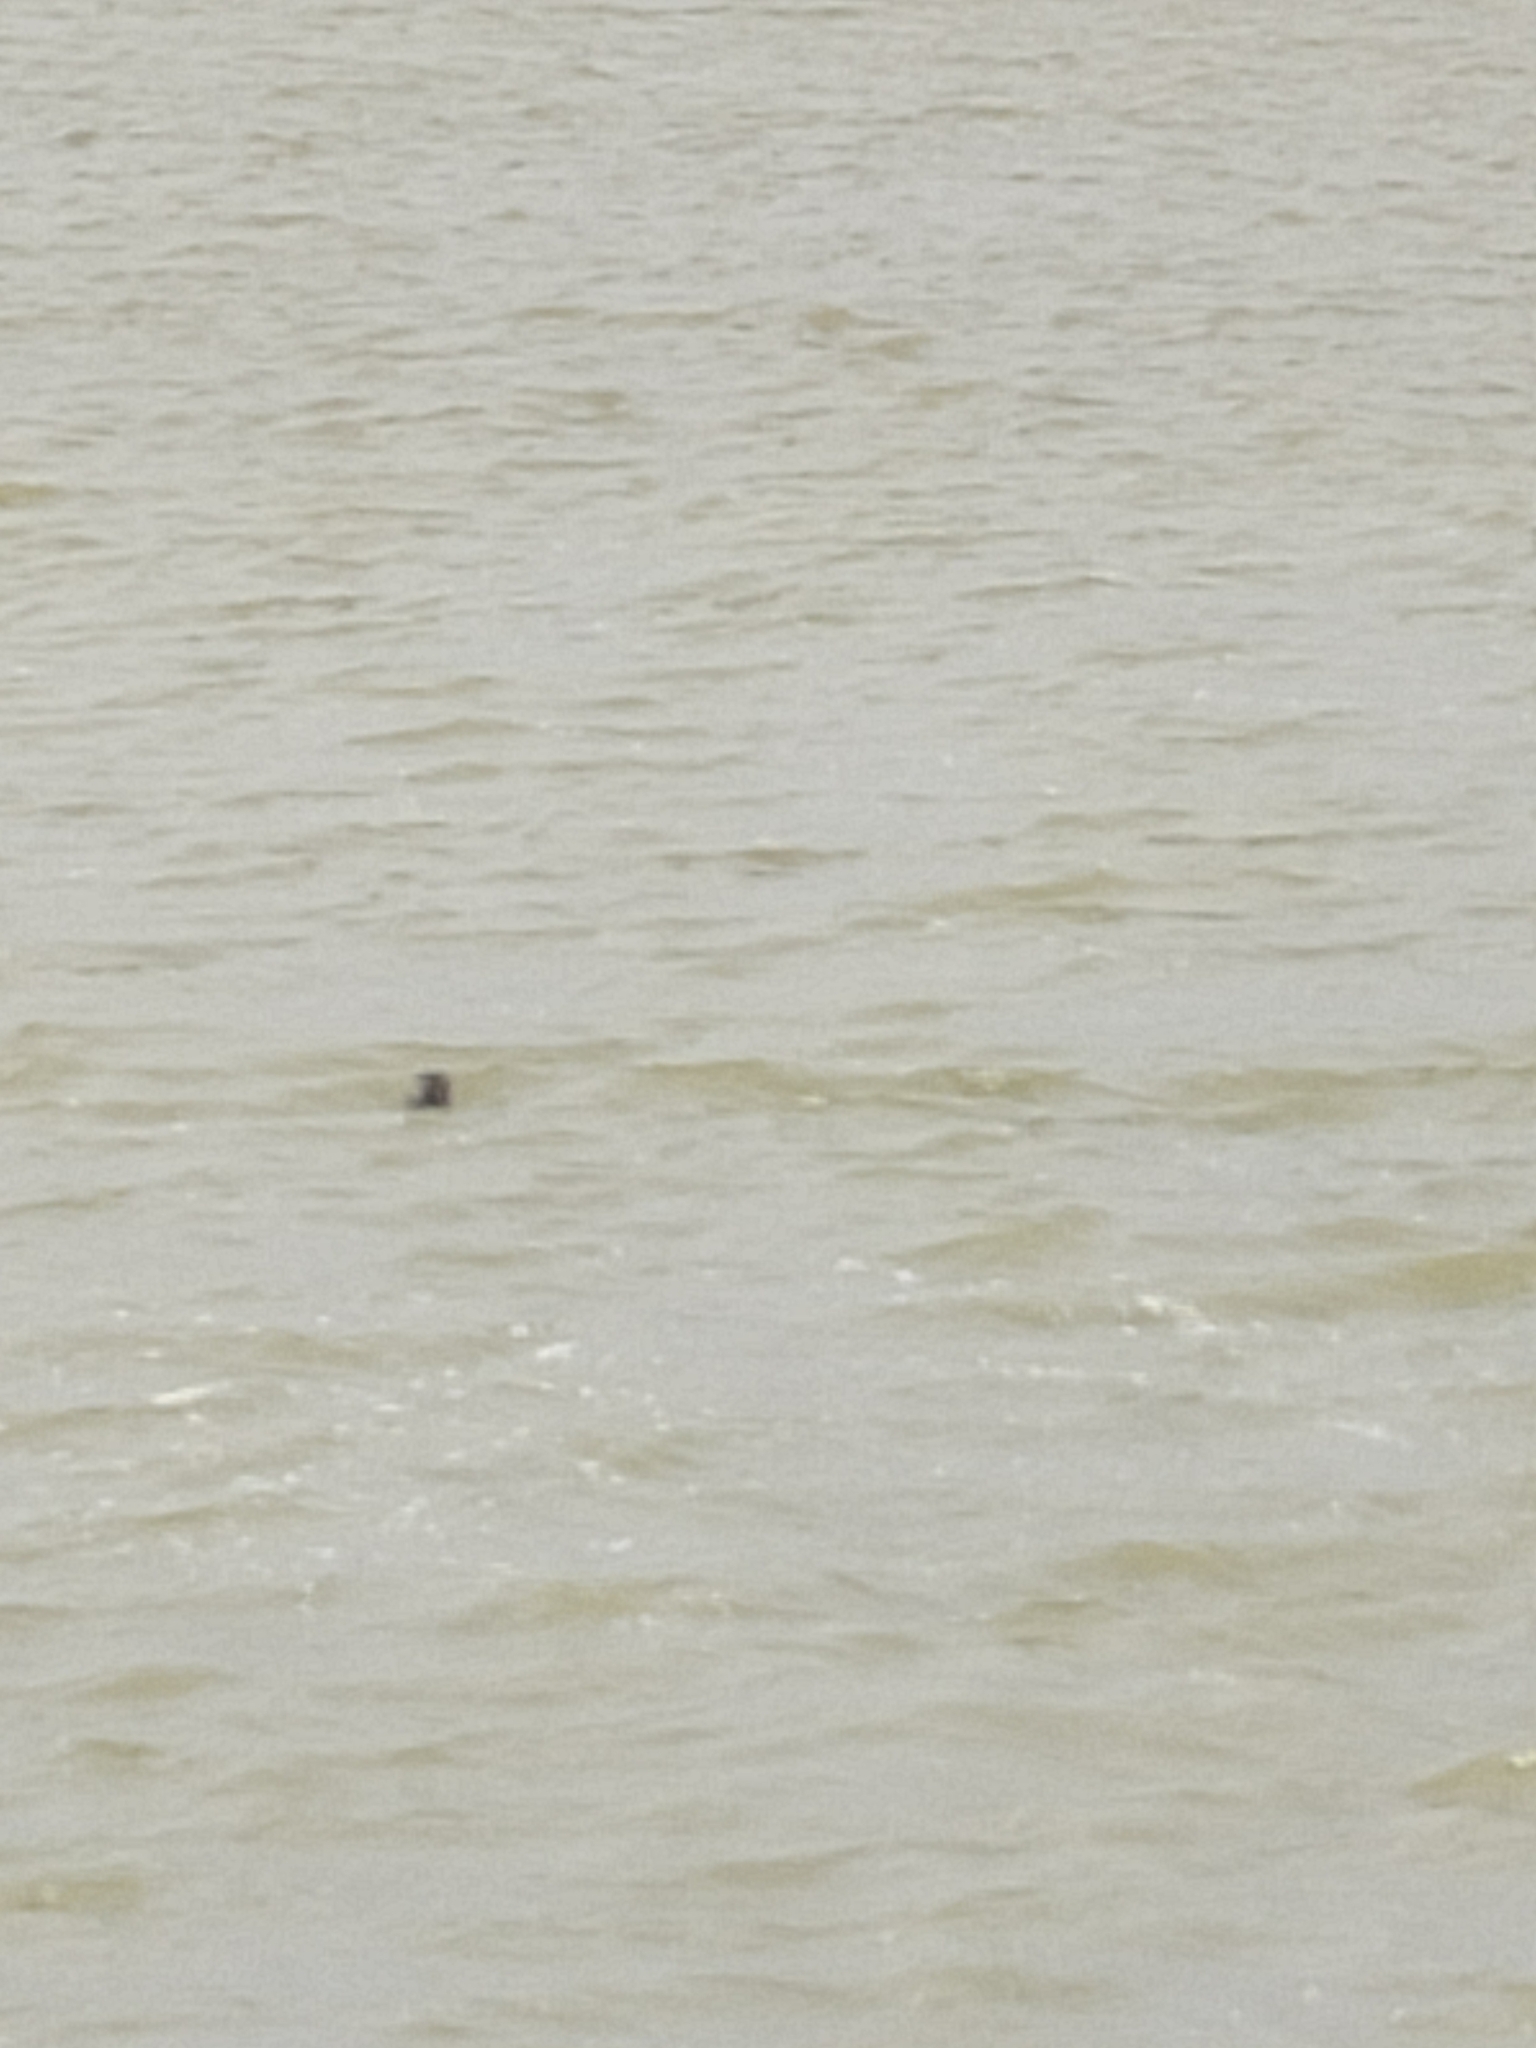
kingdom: Animalia
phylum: Chordata
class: Mammalia
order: Carnivora
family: Phocidae
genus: Phoca
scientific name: Phoca vitulina
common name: Harbor seal
